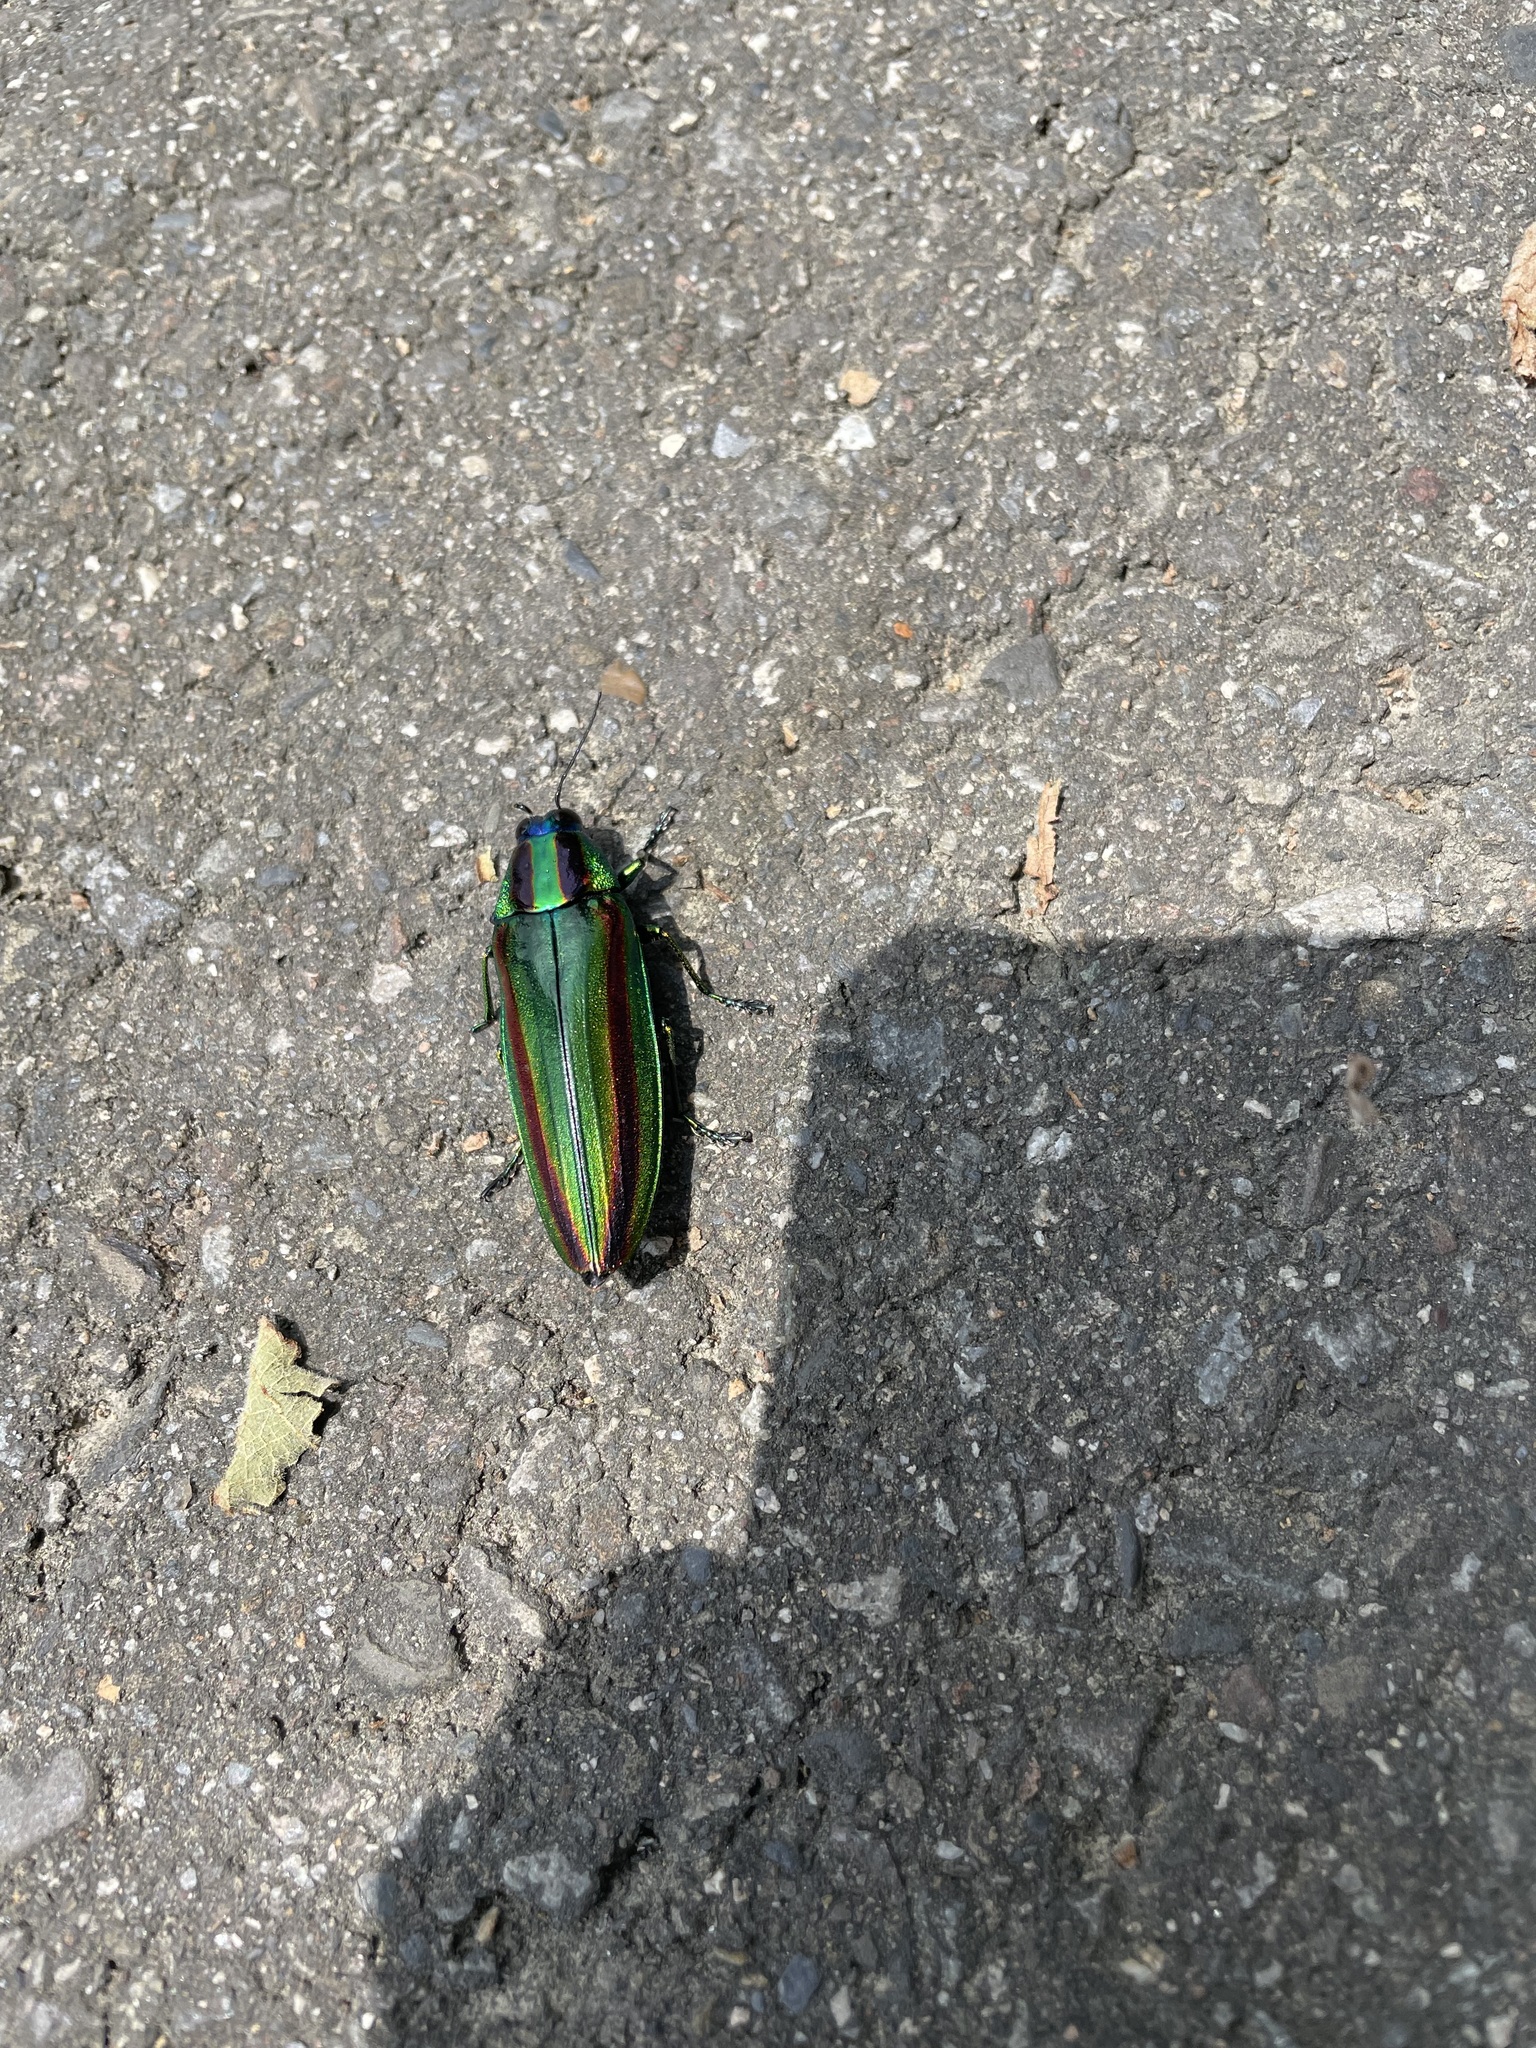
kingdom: Animalia
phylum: Arthropoda
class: Insecta
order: Coleoptera
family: Buprestidae
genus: Chrysochroa
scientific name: Chrysochroa fulgidissima
